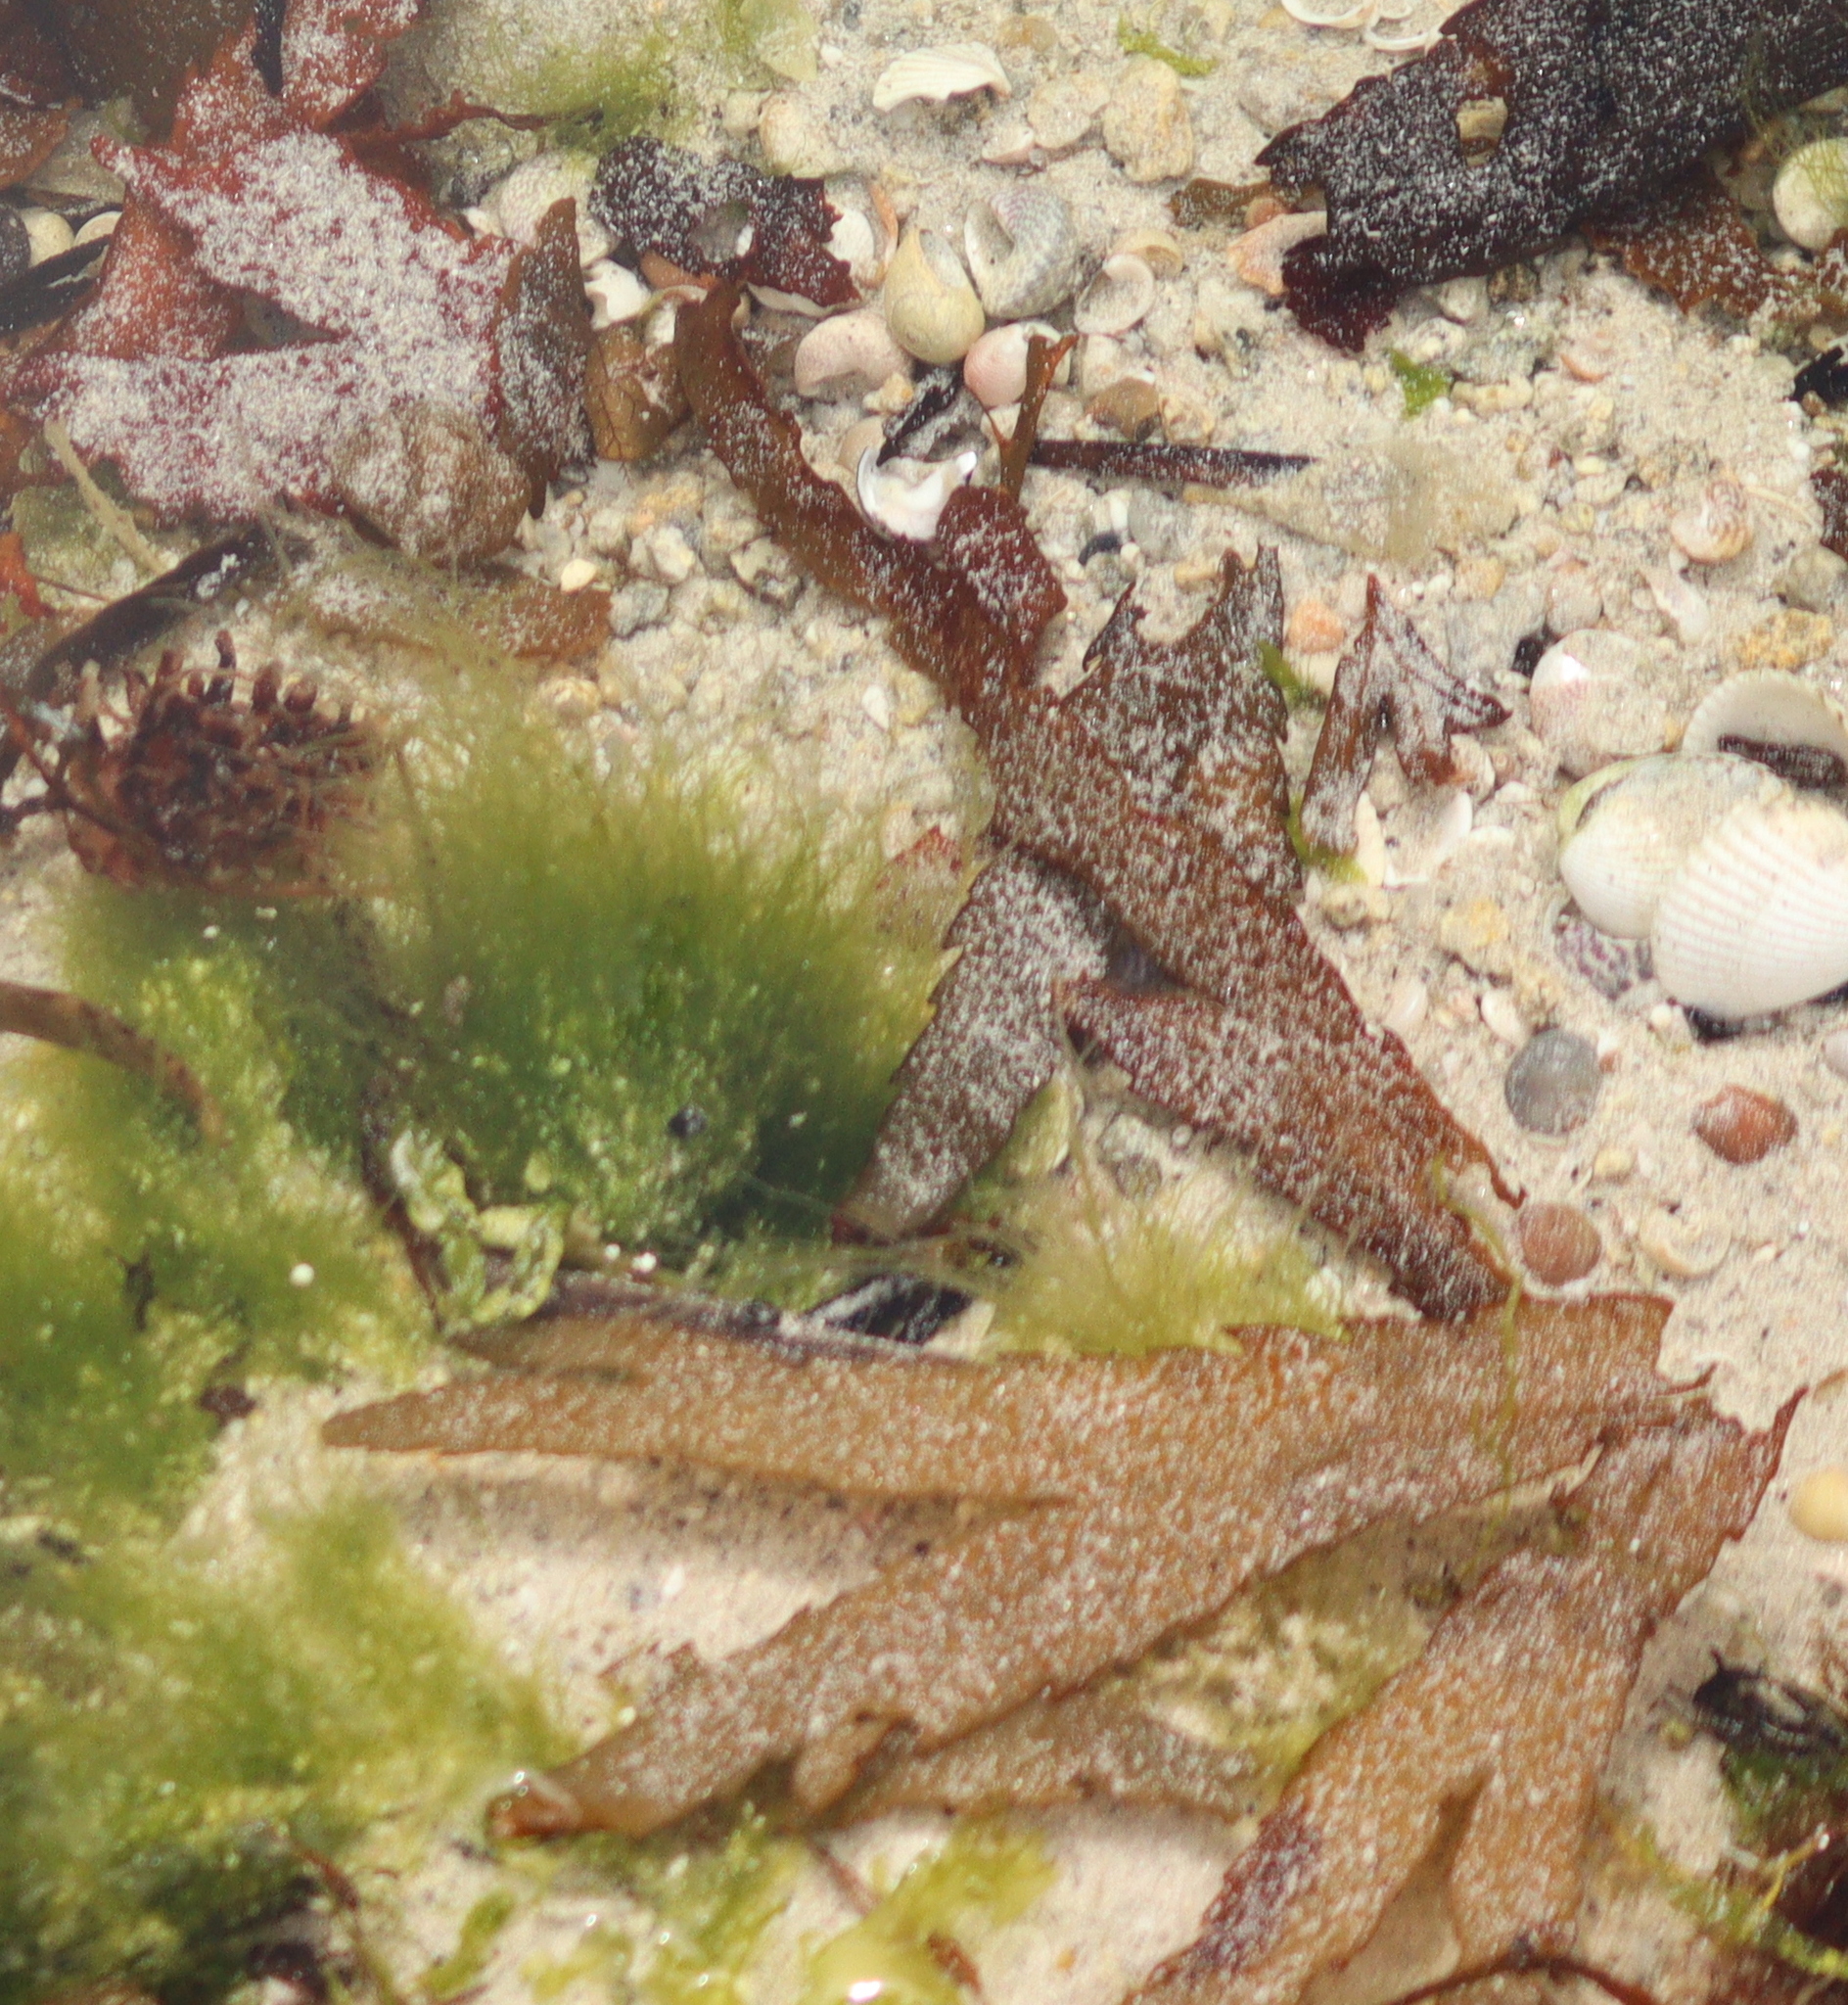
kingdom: Chromista
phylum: Ochrophyta
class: Phaeophyceae
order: Fucales
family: Fucaceae
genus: Fucus
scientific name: Fucus serratus
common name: Toothed wrack
